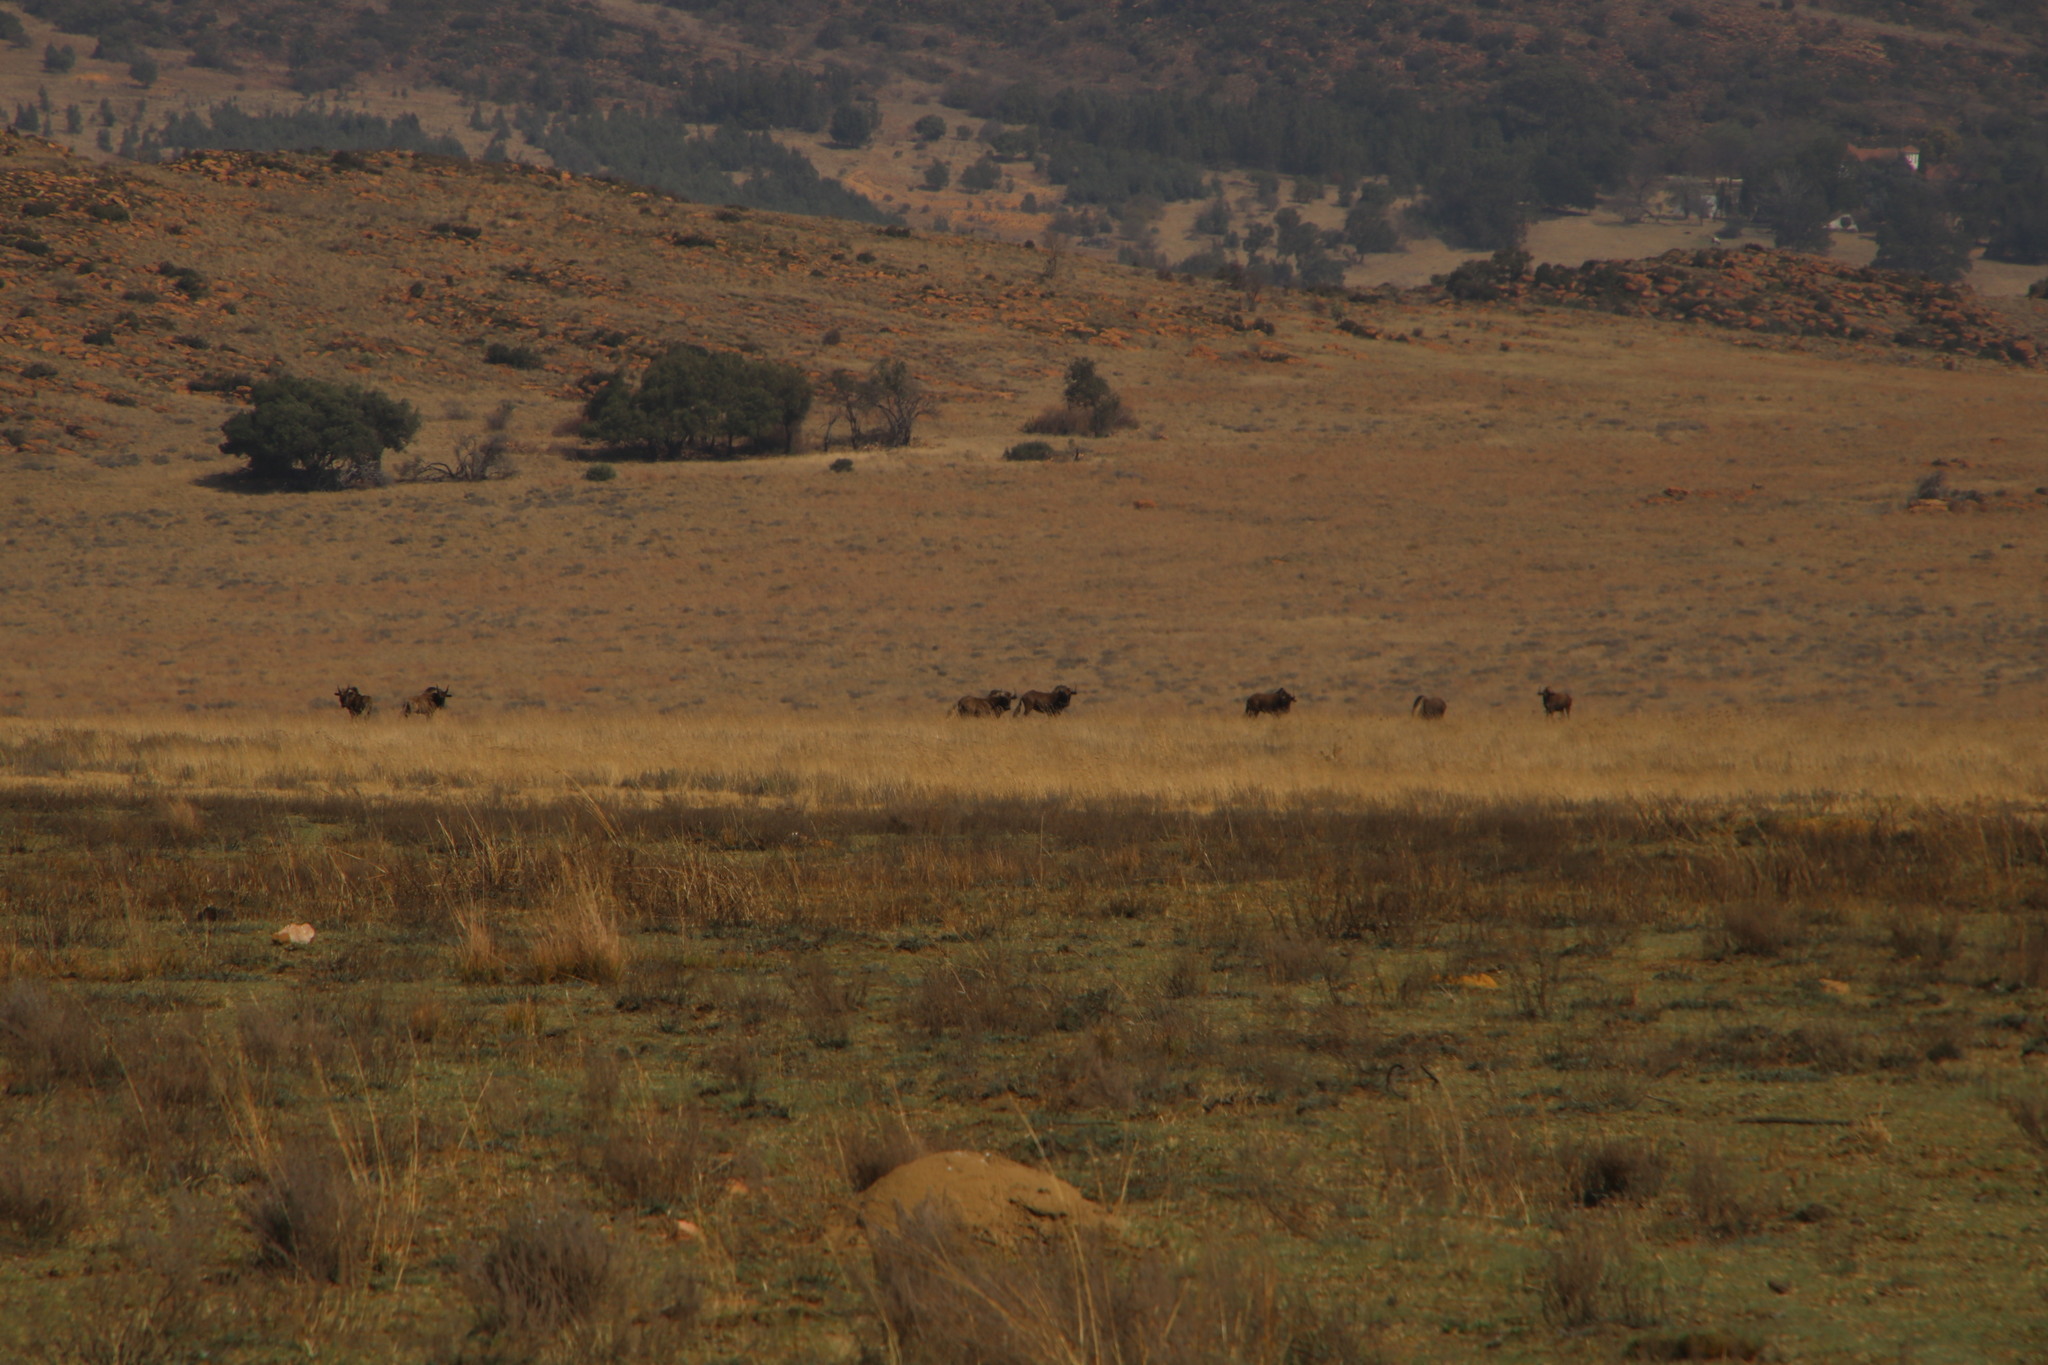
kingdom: Animalia
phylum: Chordata
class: Mammalia
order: Artiodactyla
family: Bovidae
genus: Connochaetes
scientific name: Connochaetes gnou
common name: Black wildebeest
